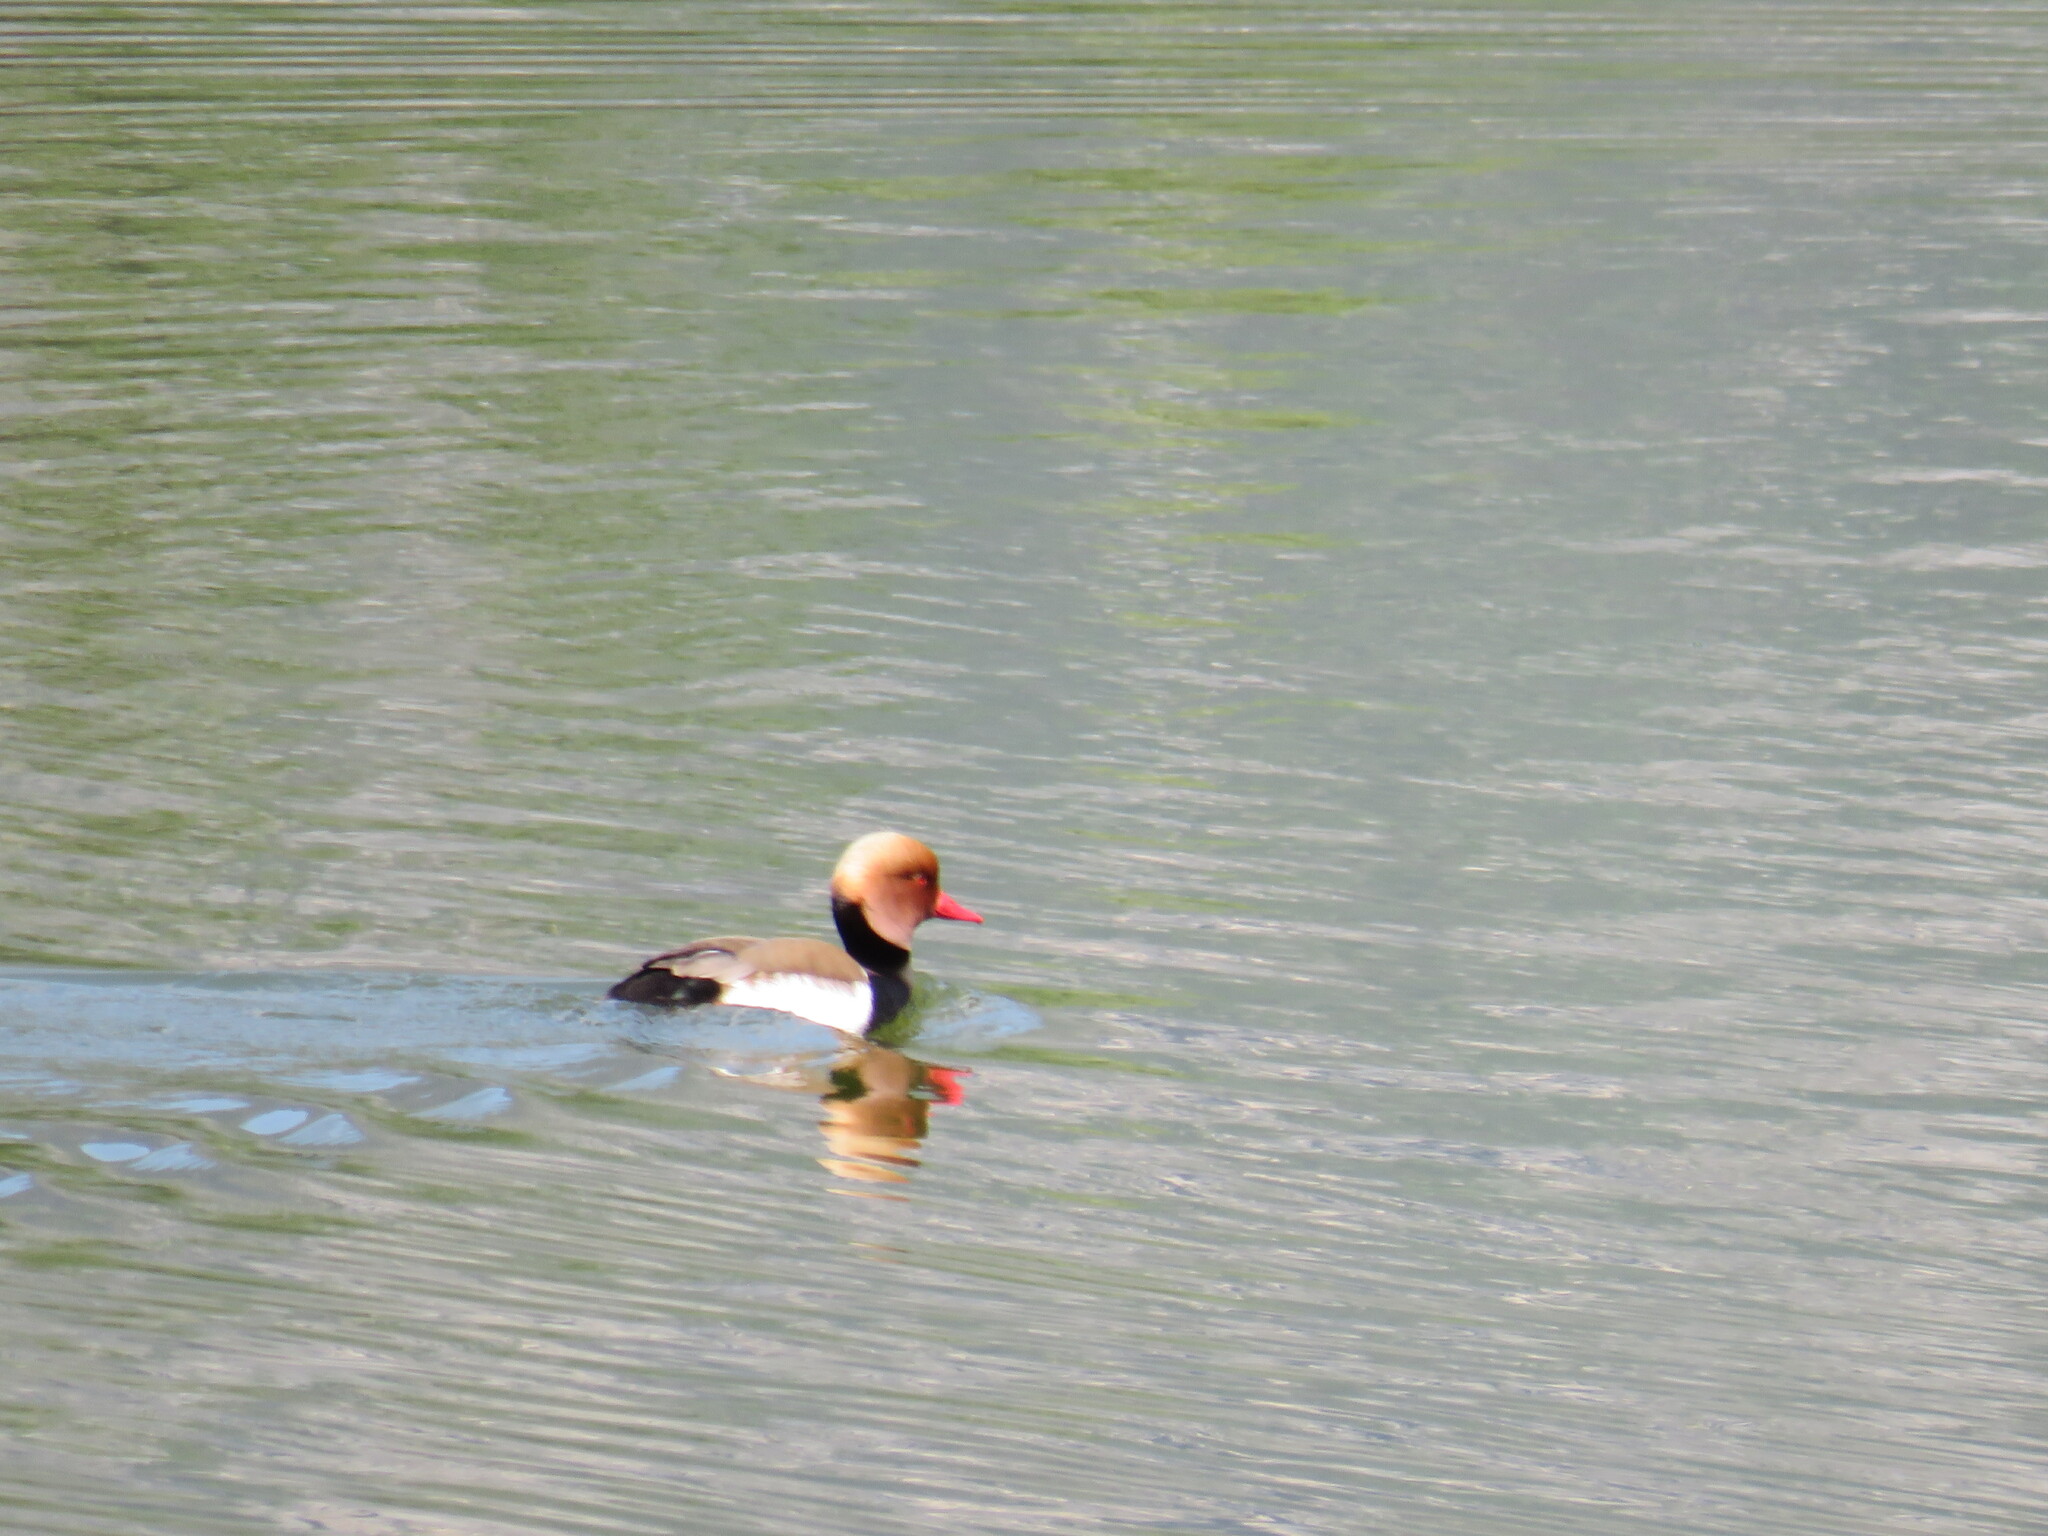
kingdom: Animalia
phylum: Chordata
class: Aves
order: Anseriformes
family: Anatidae
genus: Netta
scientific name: Netta rufina
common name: Red-crested pochard
